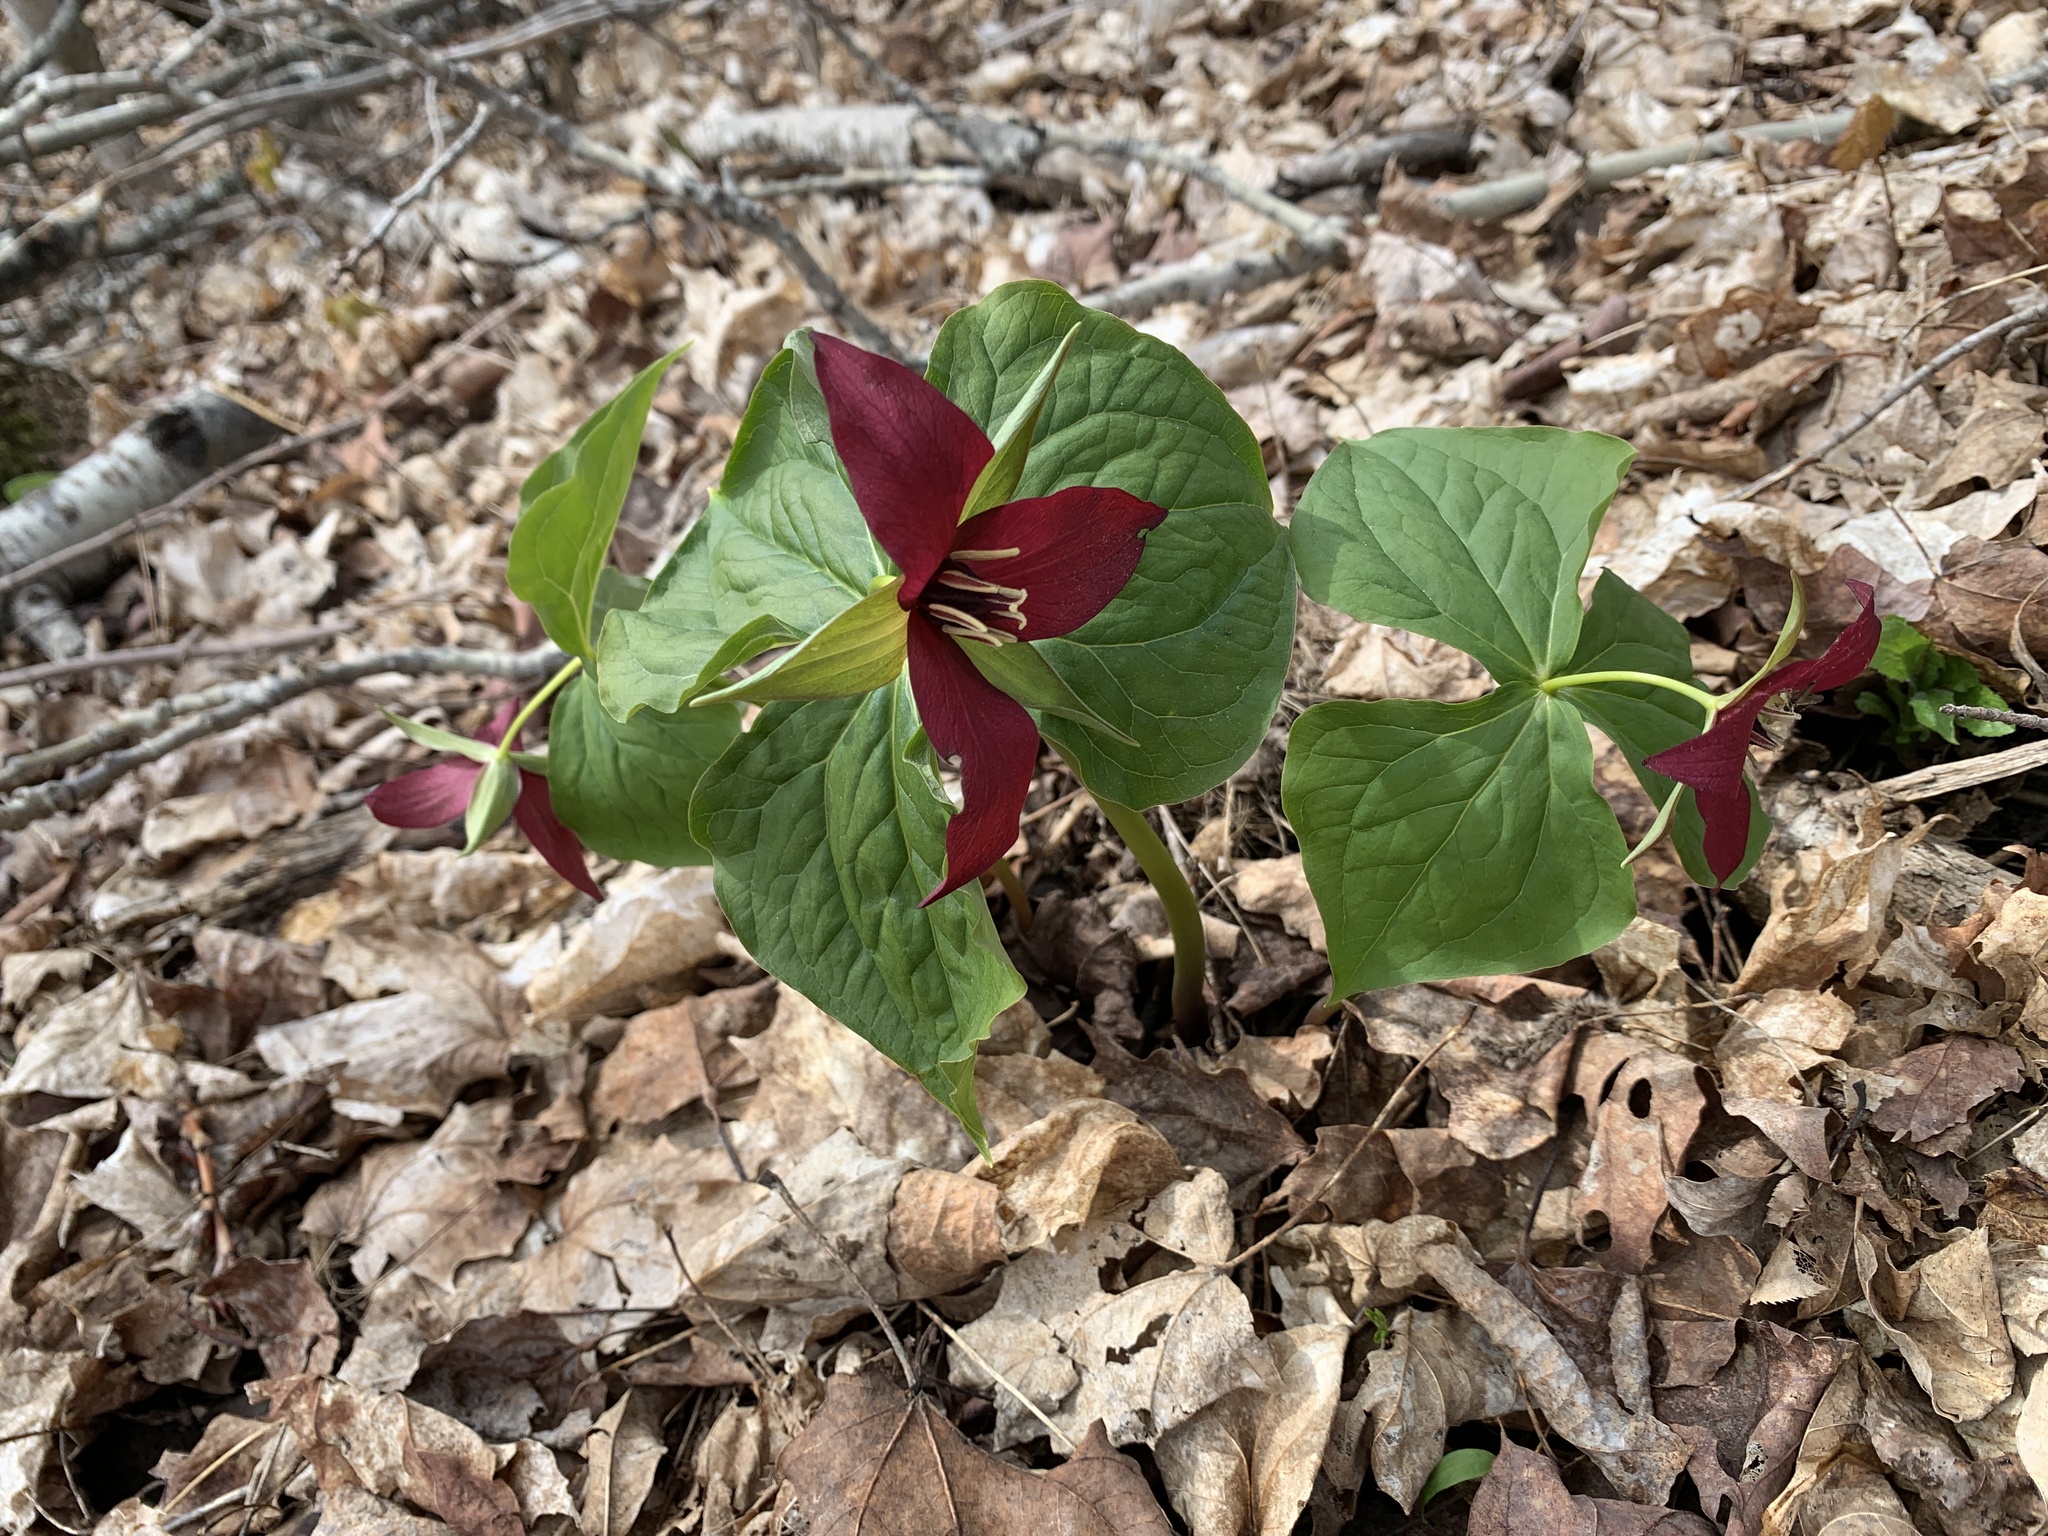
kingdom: Plantae
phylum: Tracheophyta
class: Liliopsida
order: Liliales
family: Melanthiaceae
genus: Trillium
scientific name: Trillium erectum
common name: Purple trillium
